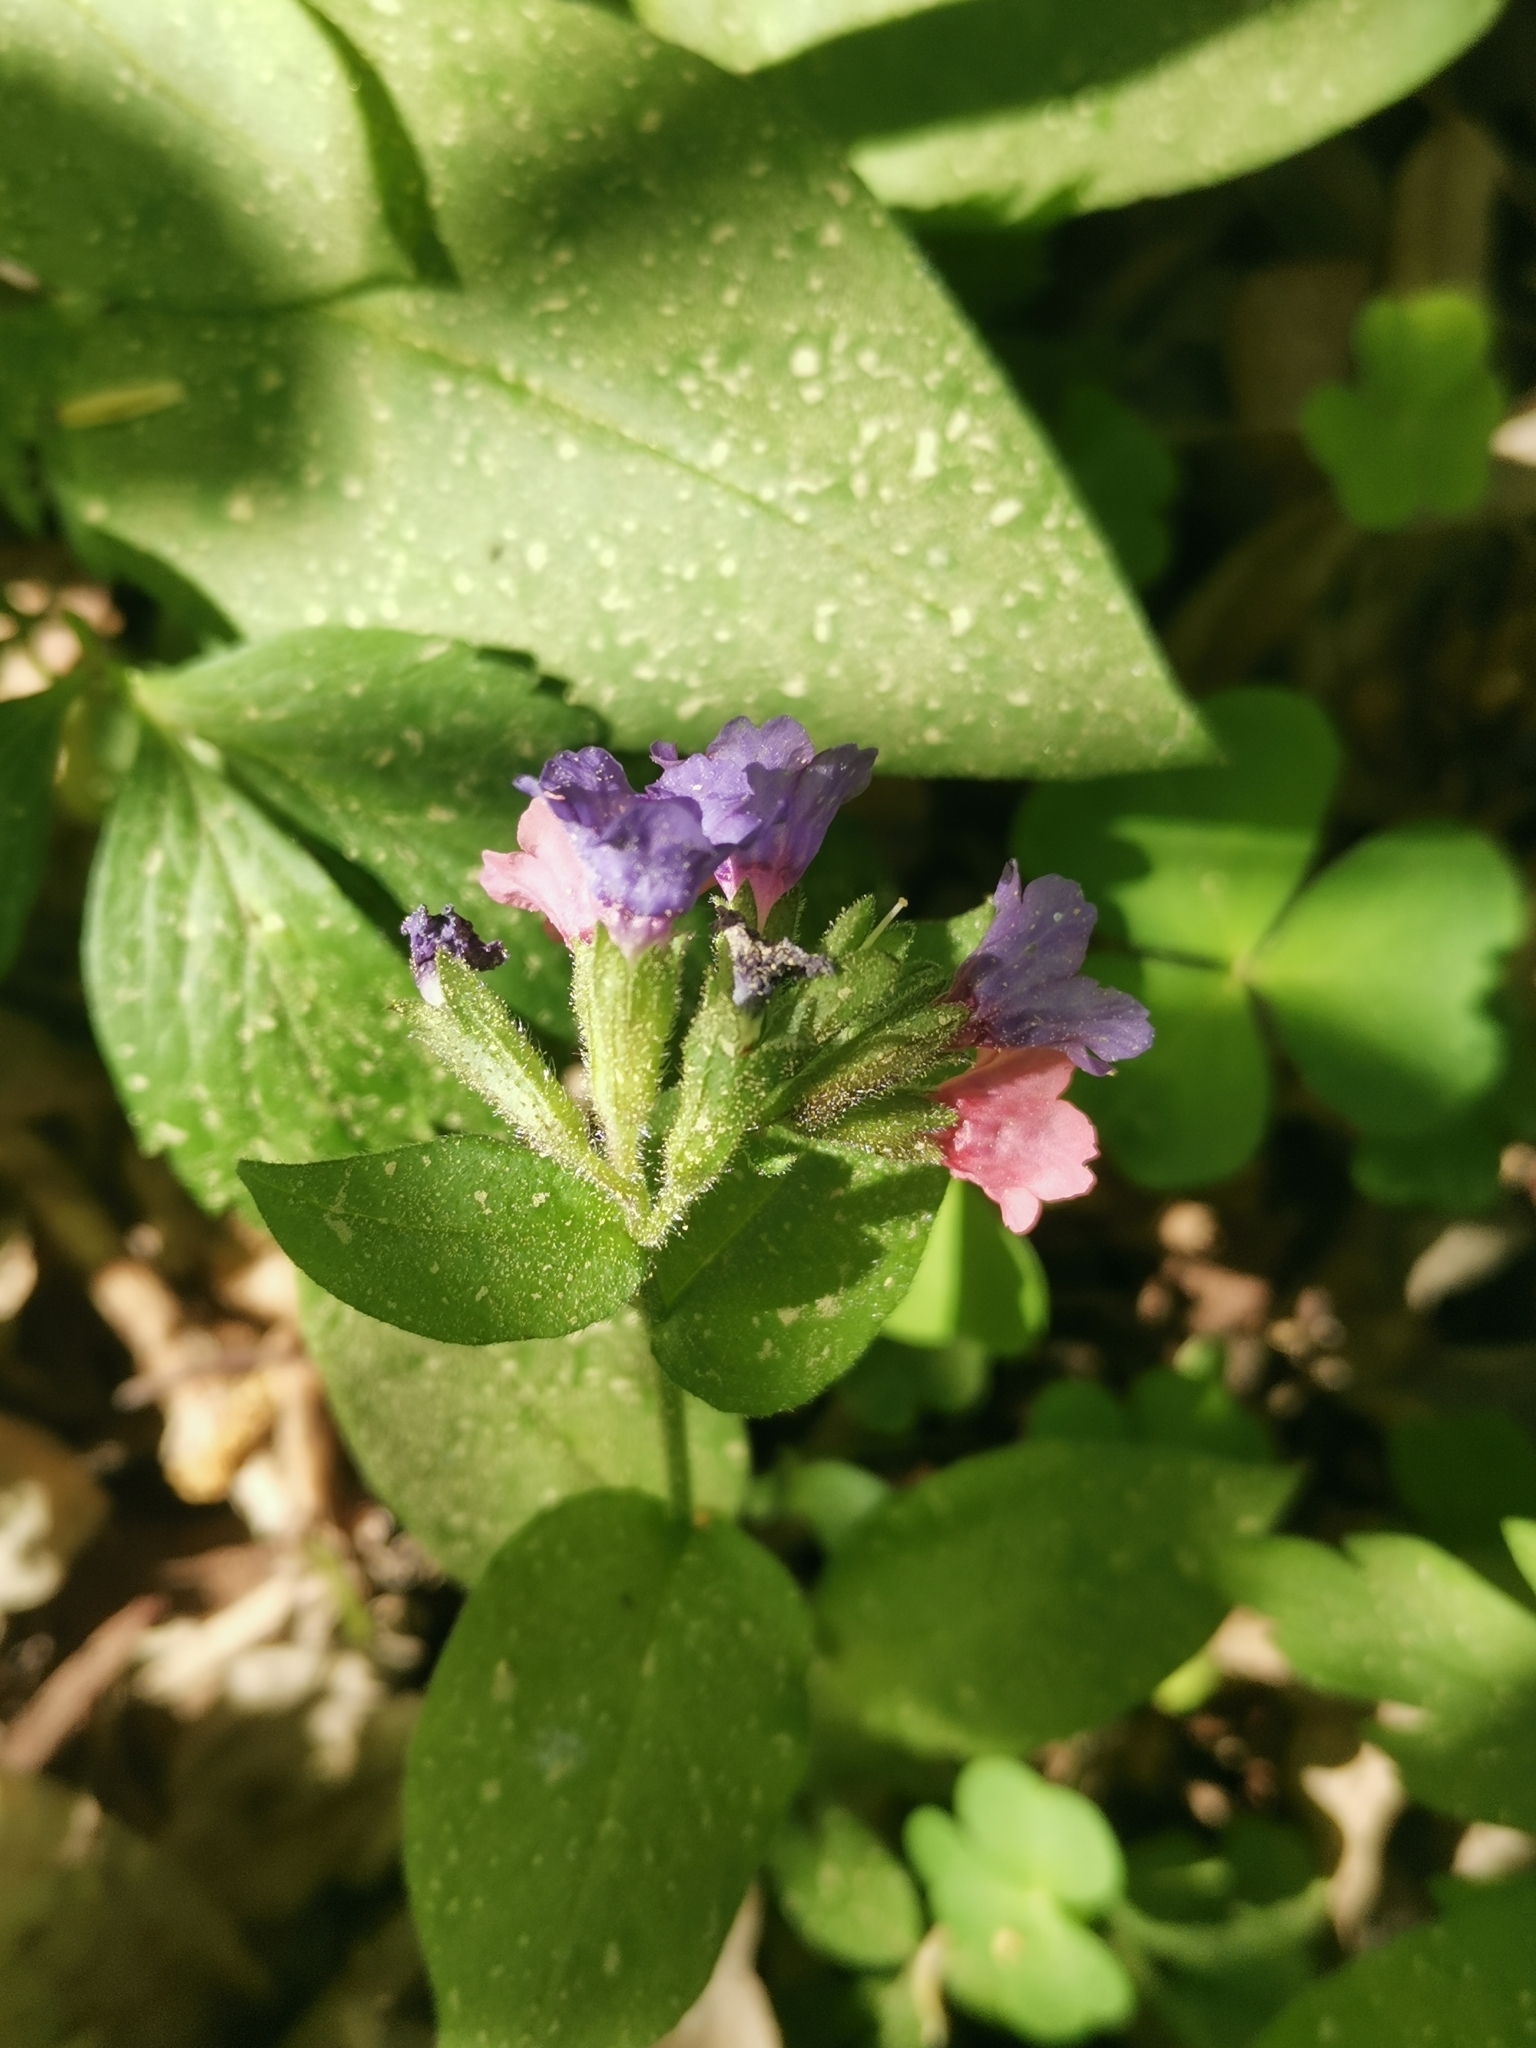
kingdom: Plantae
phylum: Tracheophyta
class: Magnoliopsida
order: Boraginales
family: Boraginaceae
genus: Pulmonaria
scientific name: Pulmonaria obscura
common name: Suffolk lungwort
